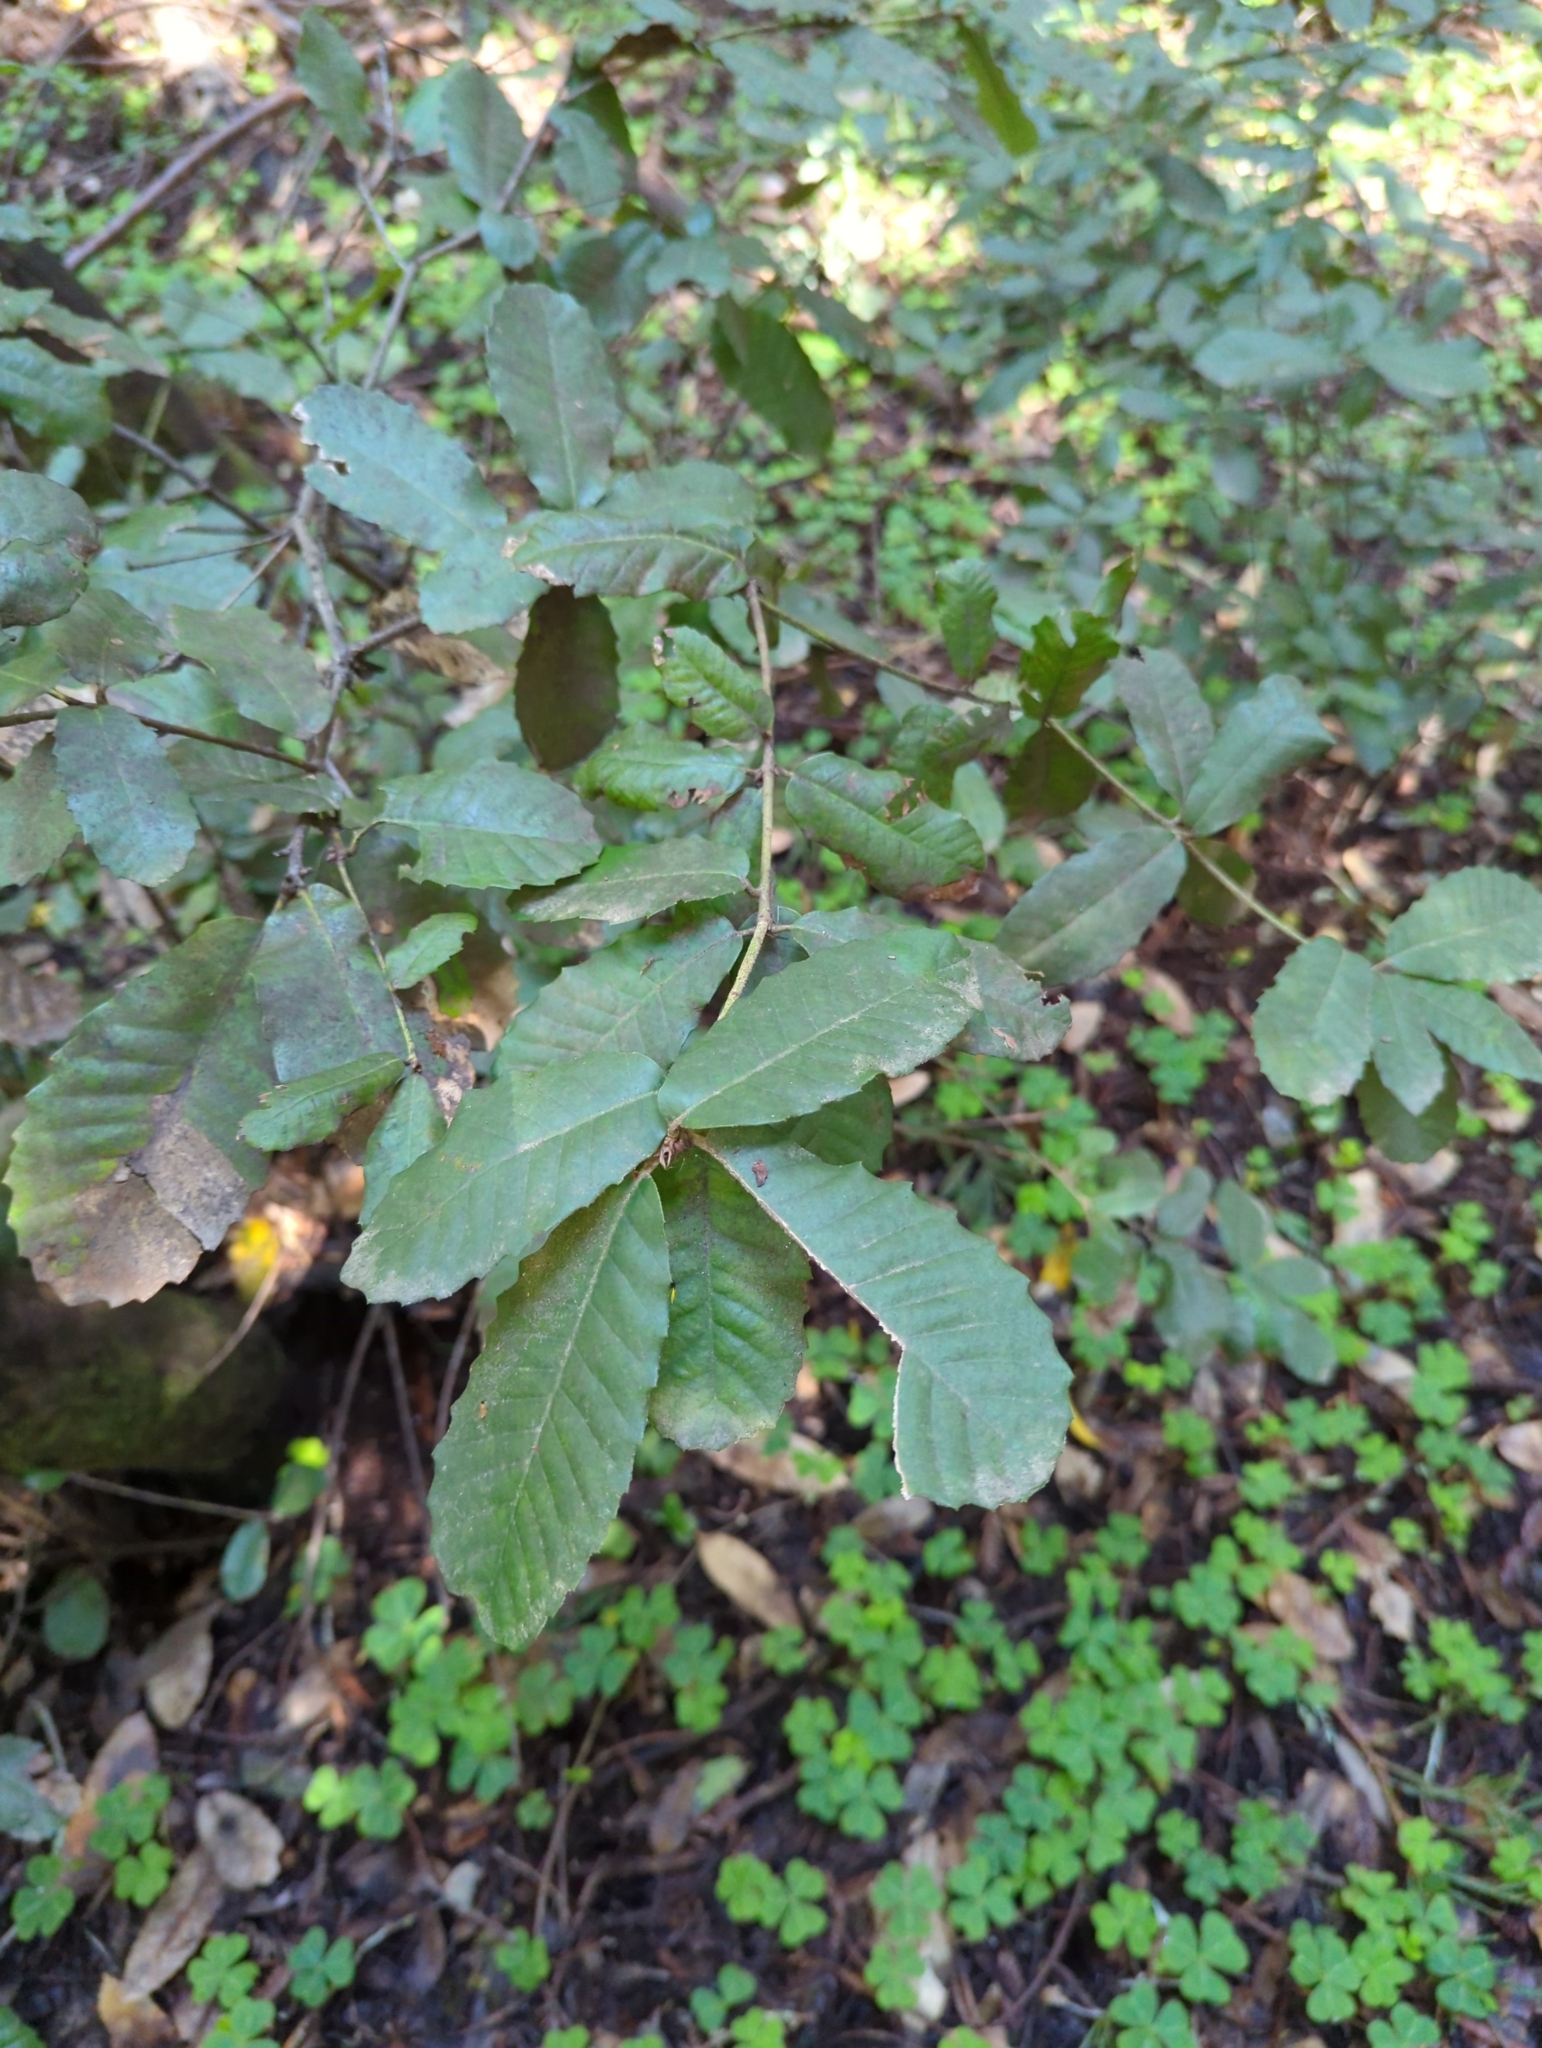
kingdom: Plantae
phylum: Tracheophyta
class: Magnoliopsida
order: Fagales
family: Fagaceae
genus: Notholithocarpus
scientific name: Notholithocarpus densiflorus
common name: Tan bark oak
